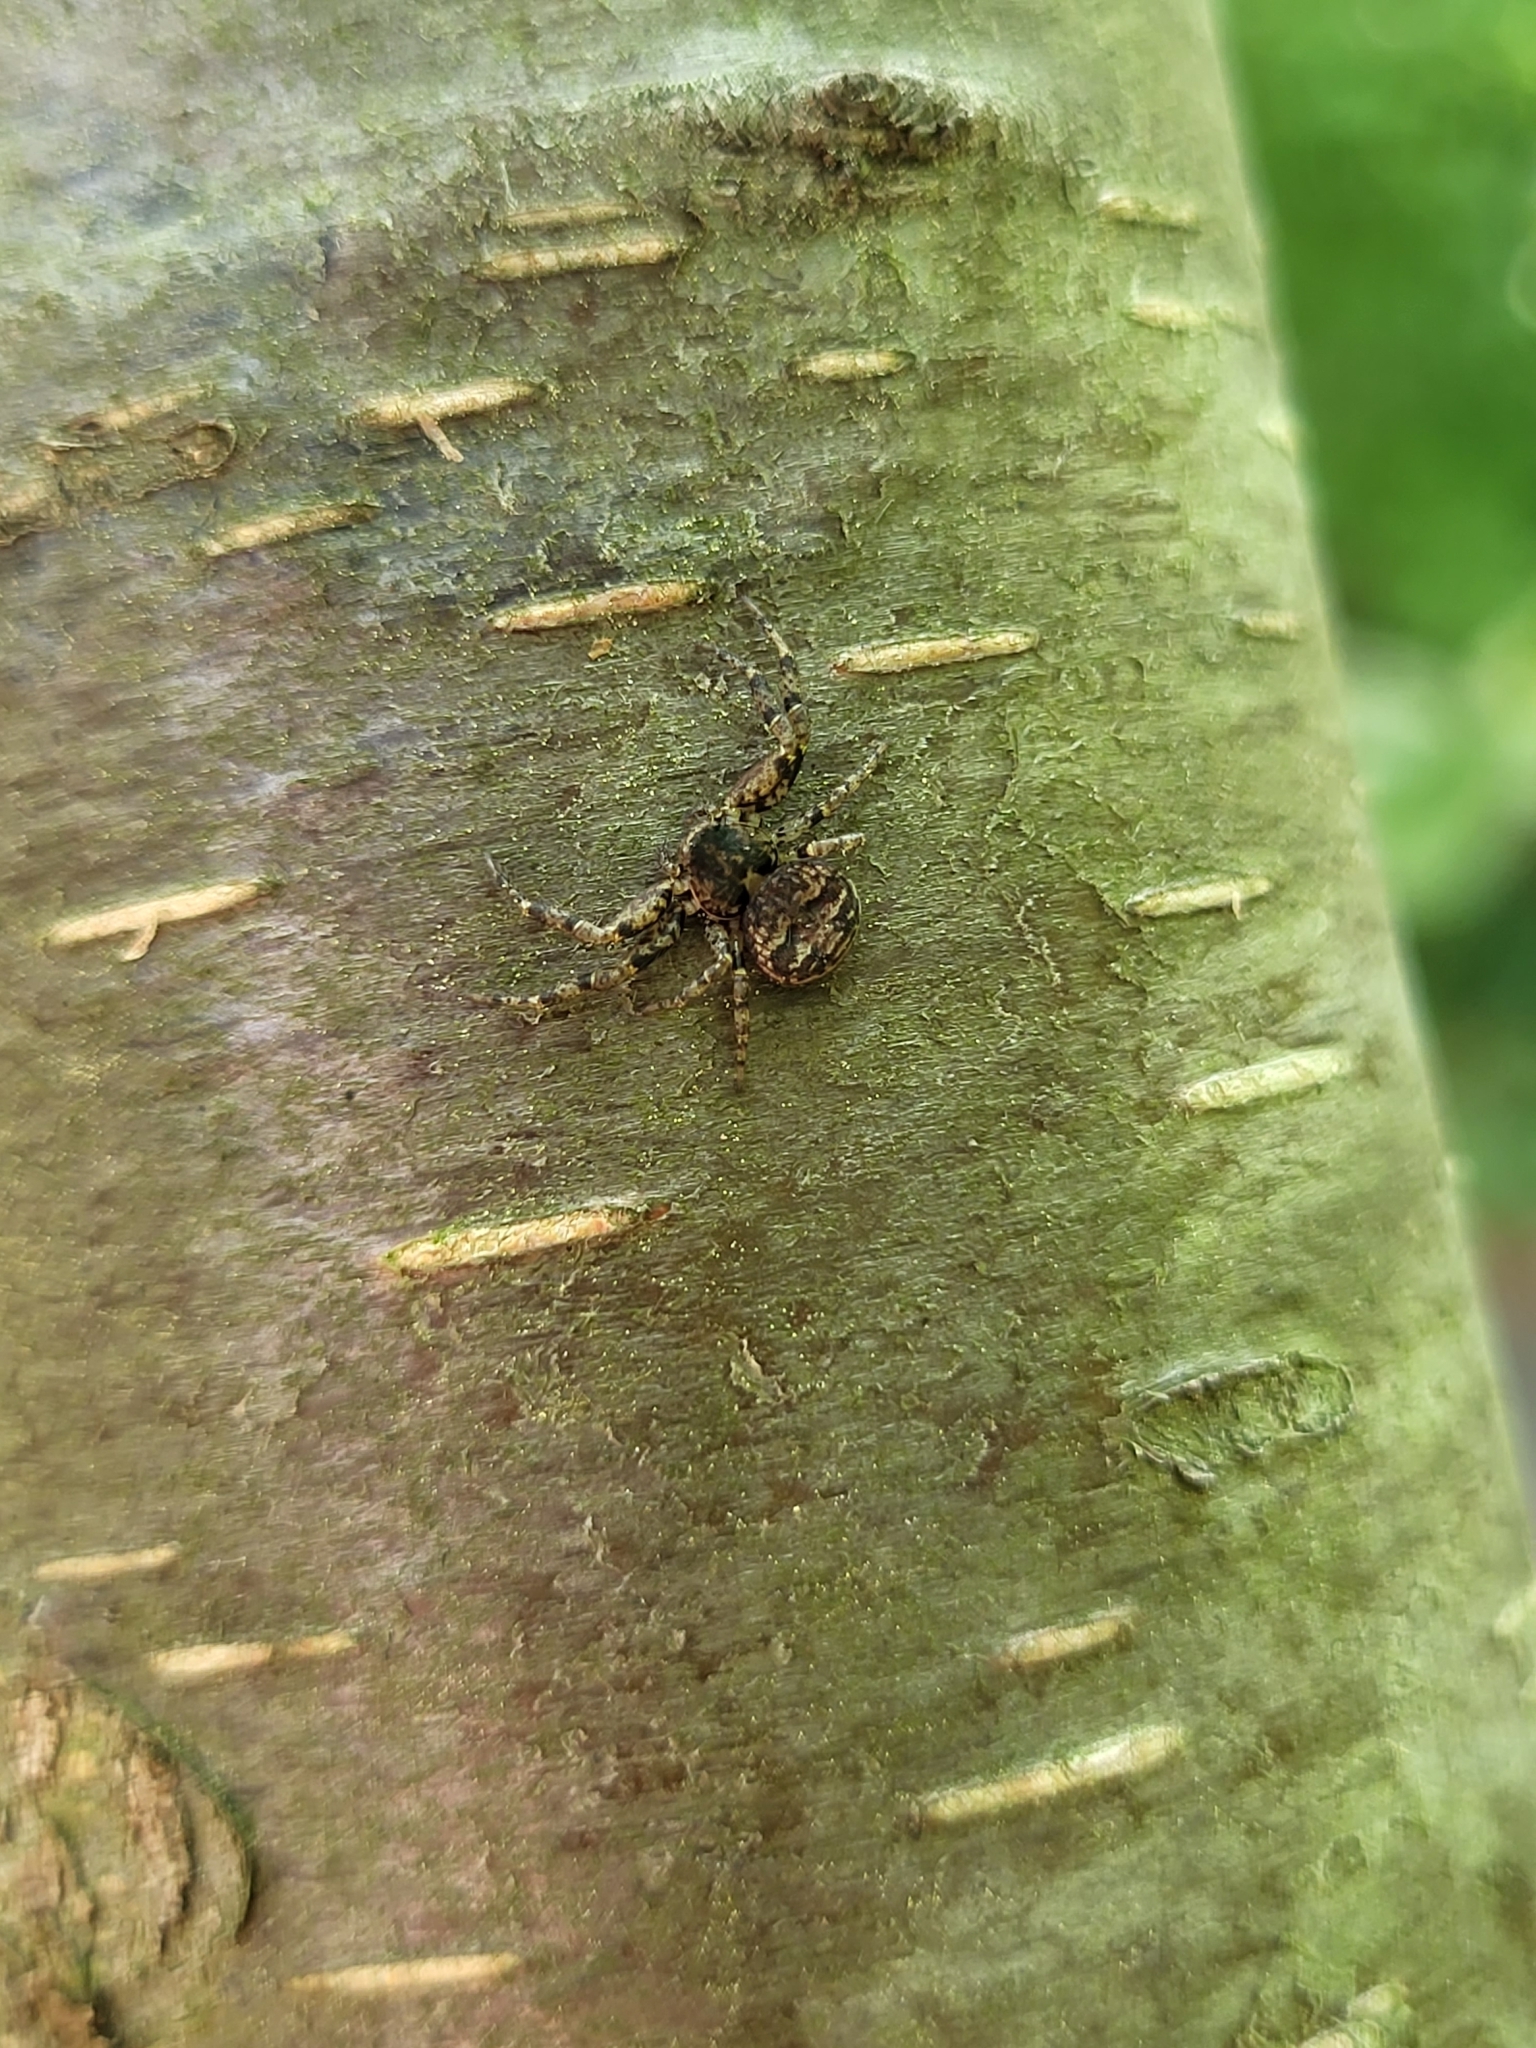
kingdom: Animalia
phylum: Arthropoda
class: Arachnida
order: Araneae
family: Thomisidae
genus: Bassaniana
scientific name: Bassaniana versicolor
